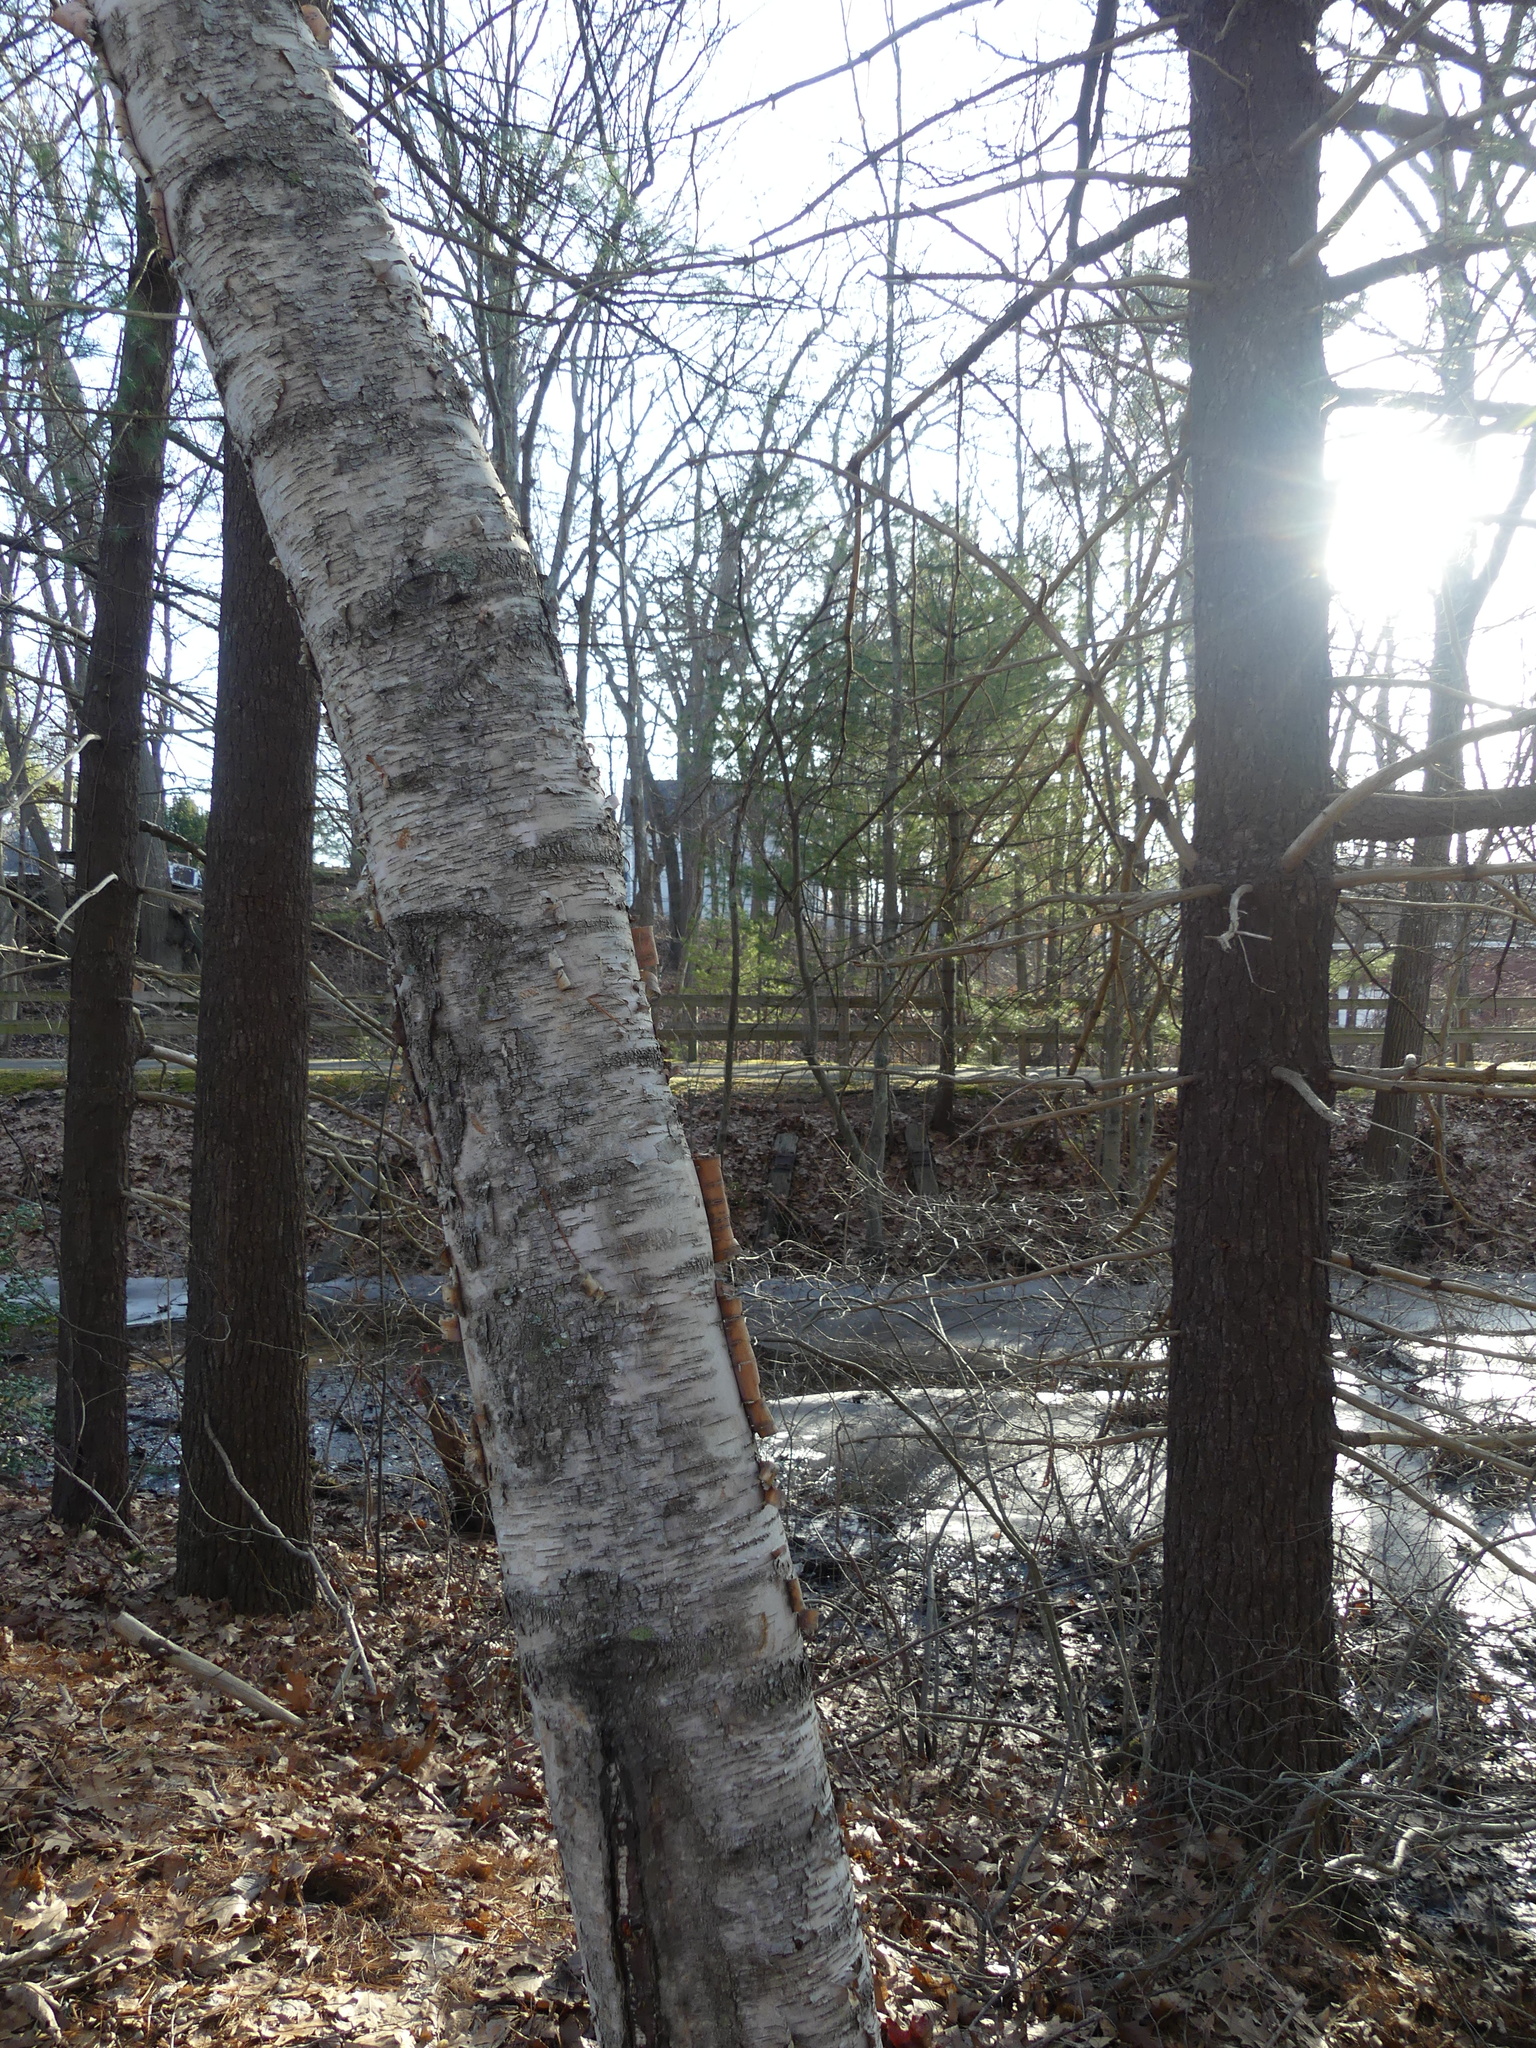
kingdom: Plantae
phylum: Tracheophyta
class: Magnoliopsida
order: Fagales
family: Betulaceae
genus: Betula
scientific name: Betula papyrifera
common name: Paper birch
